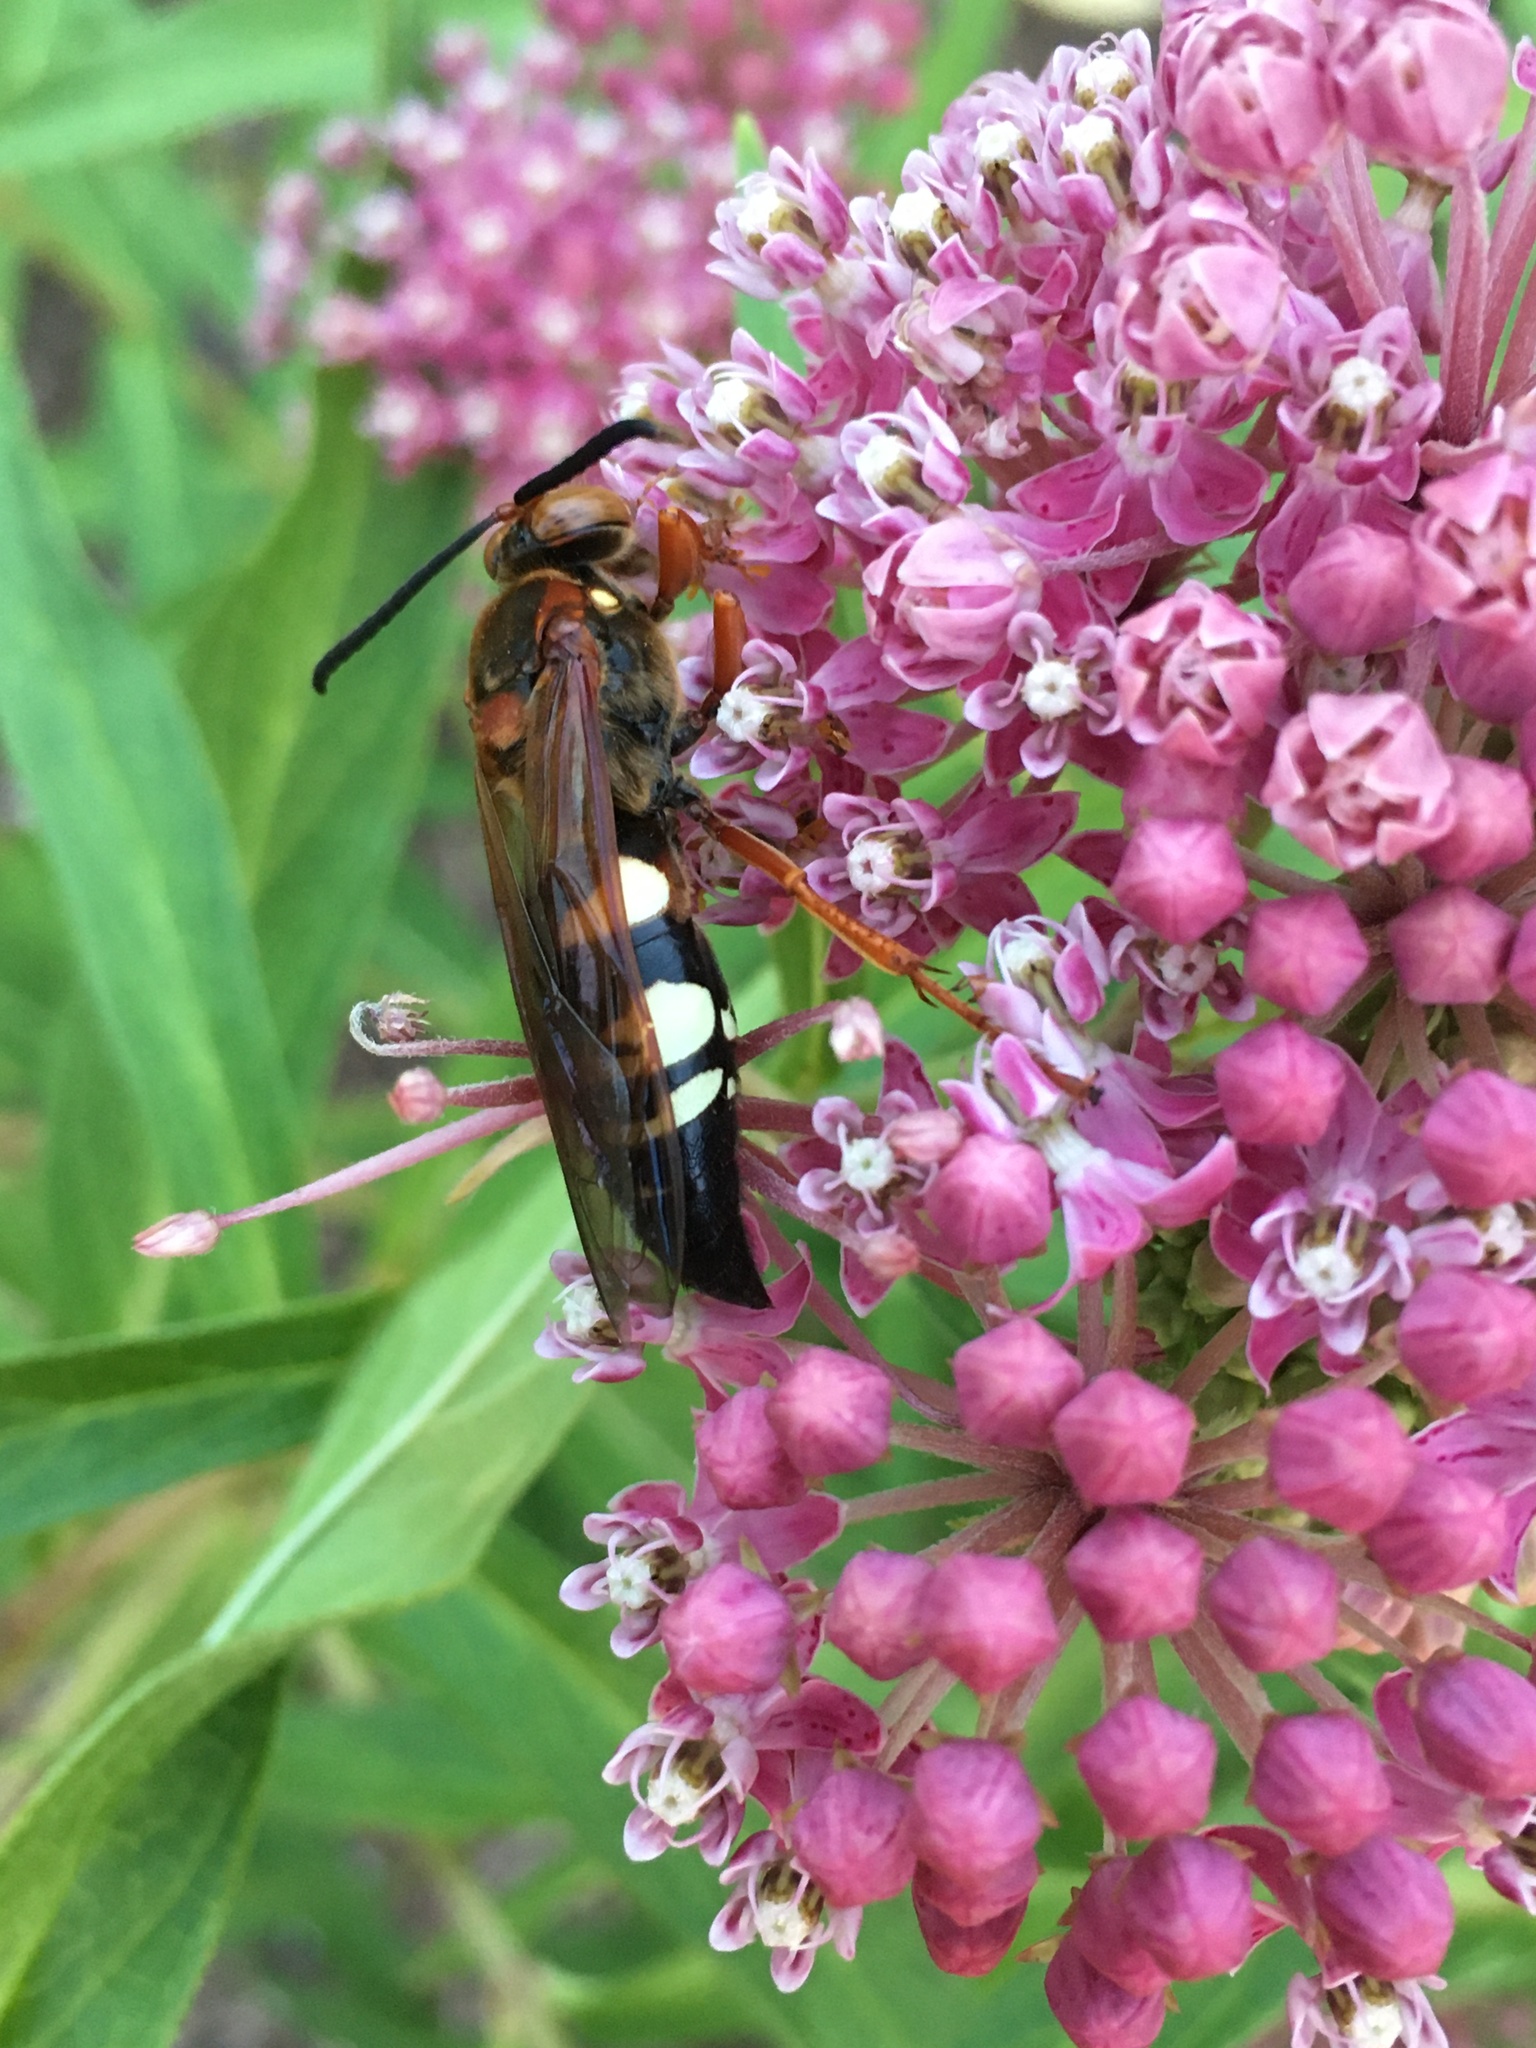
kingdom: Animalia
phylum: Arthropoda
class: Insecta
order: Hymenoptera
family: Crabronidae
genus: Sphecius
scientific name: Sphecius speciosus
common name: Cicada killer
